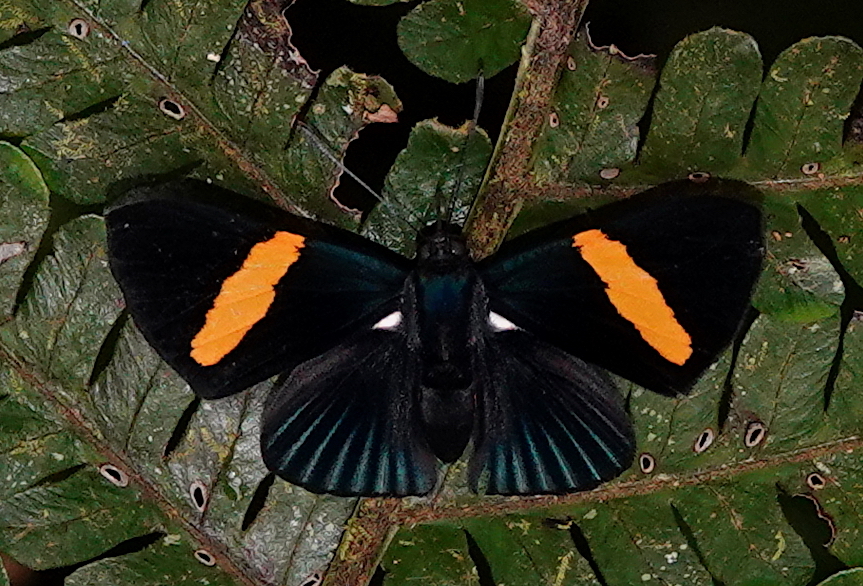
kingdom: Animalia
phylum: Arthropoda
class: Insecta
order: Lepidoptera
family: Riodinidae
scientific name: Riodinidae
